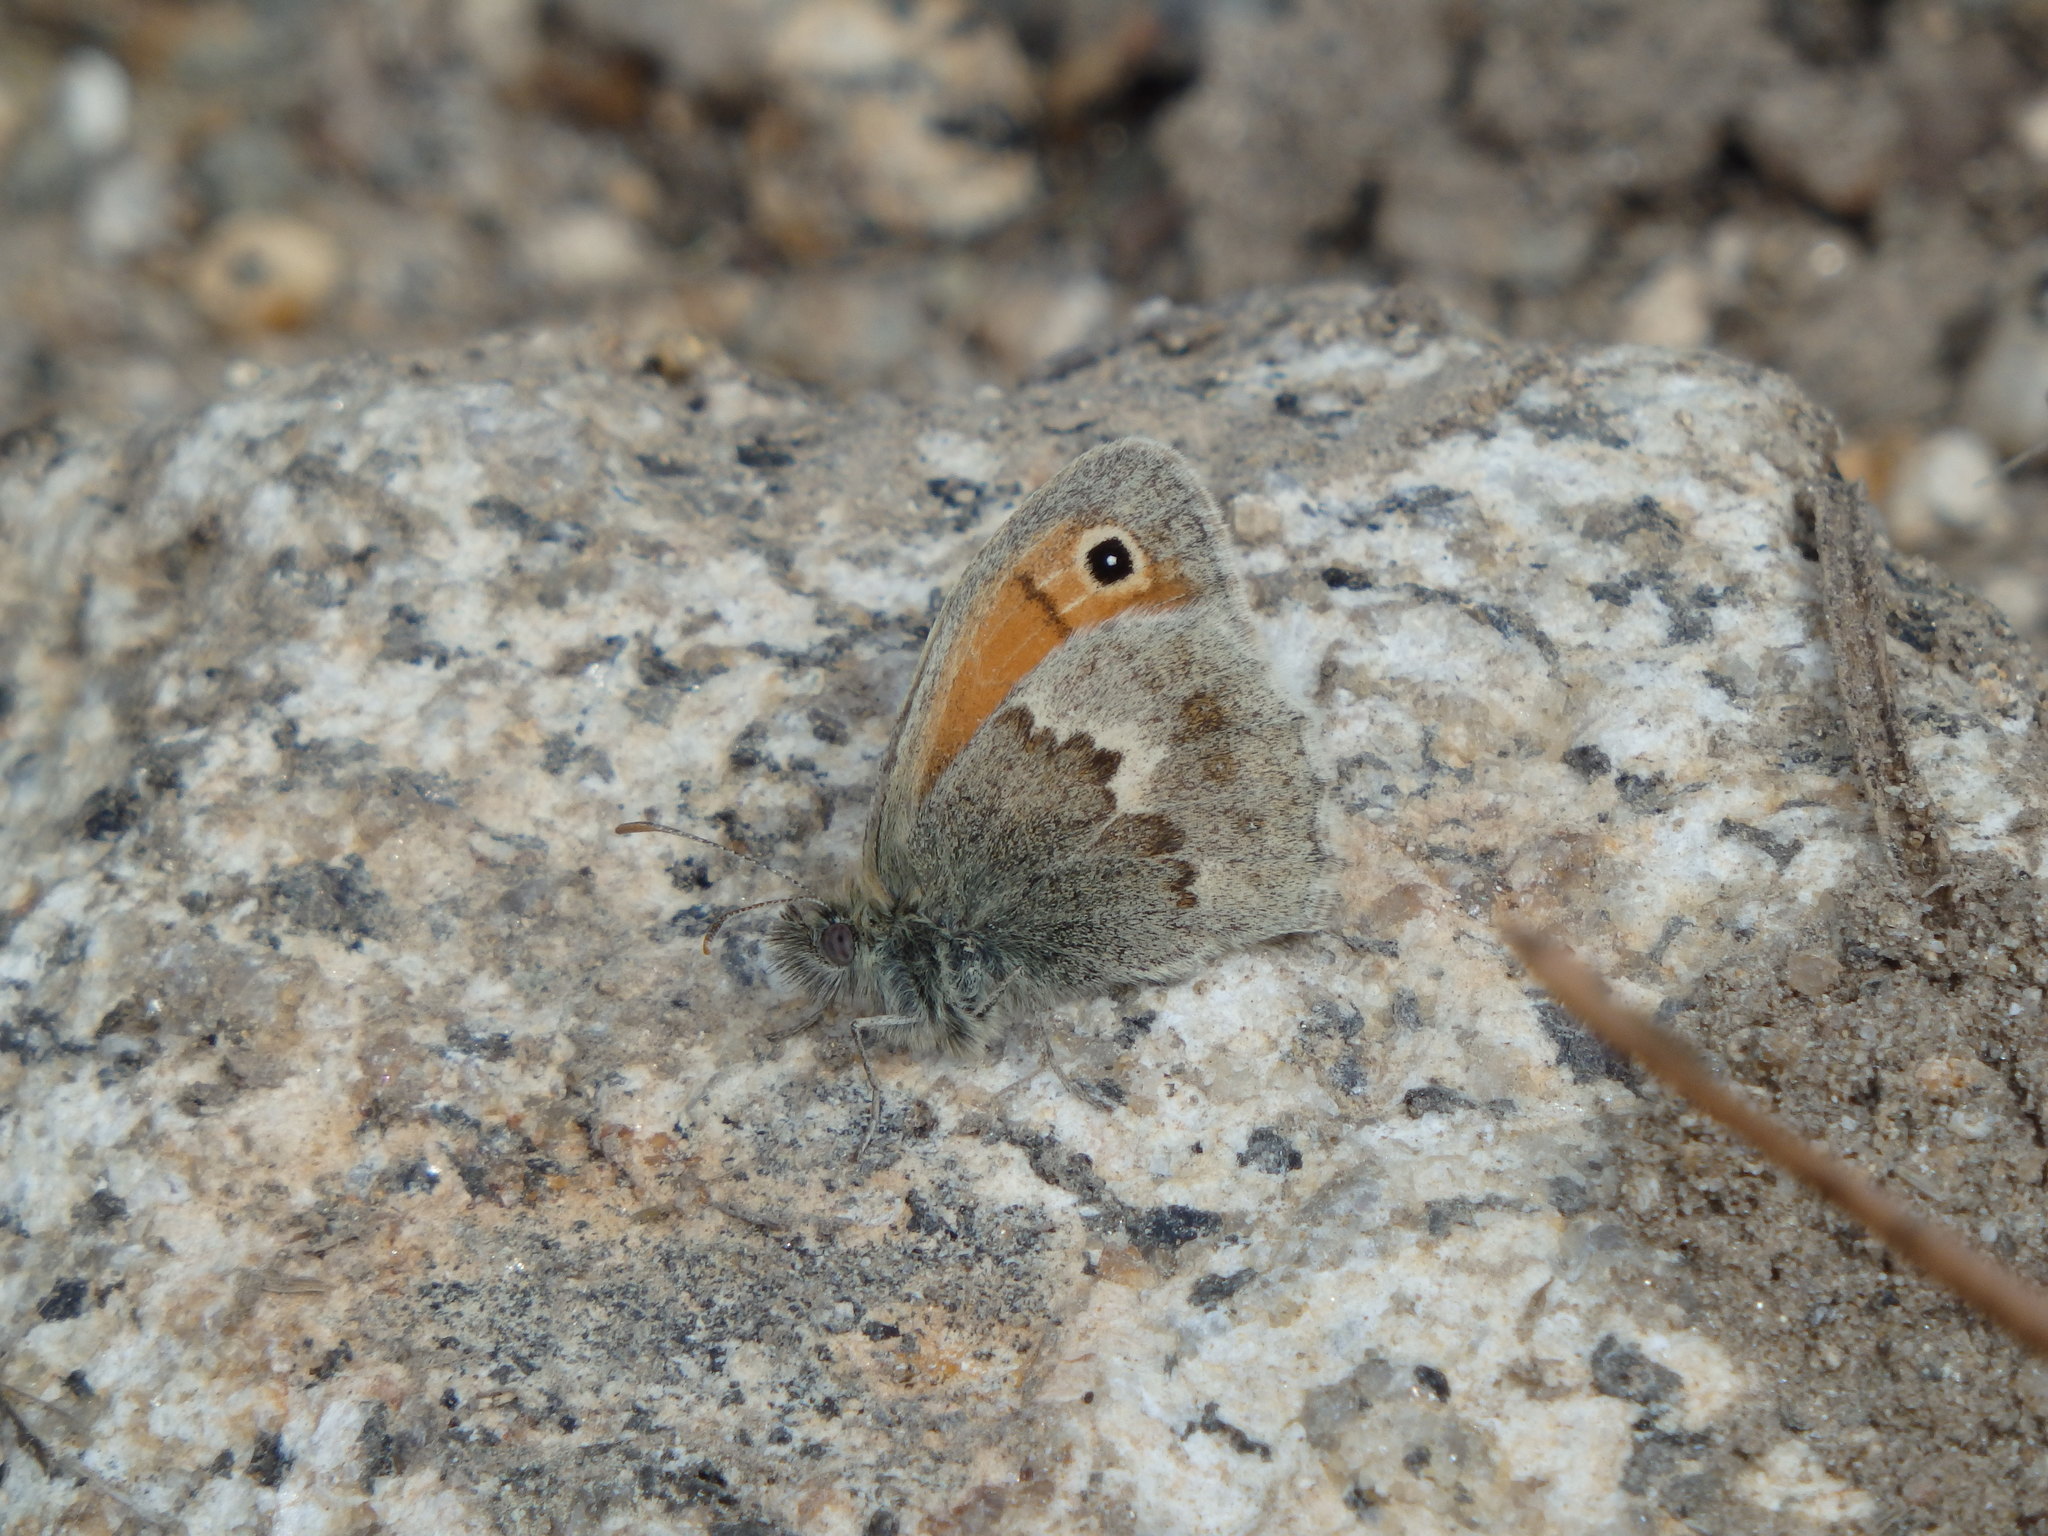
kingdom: Animalia
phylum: Arthropoda
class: Insecta
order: Lepidoptera
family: Nymphalidae
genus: Coenonympha
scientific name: Coenonympha pamphilus
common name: Small heath
